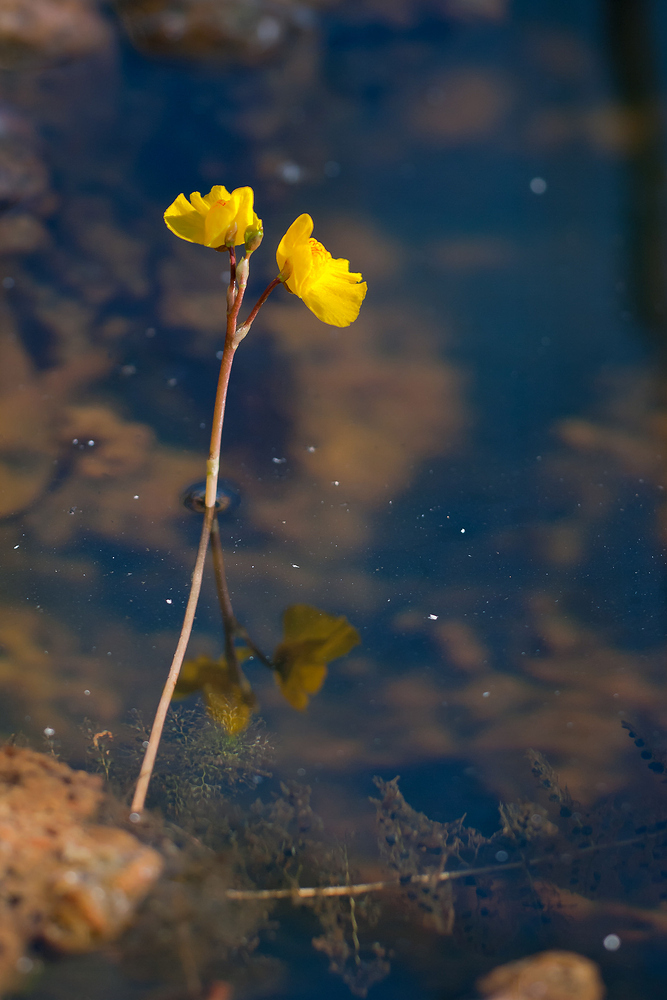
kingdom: Plantae
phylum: Tracheophyta
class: Magnoliopsida
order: Lamiales
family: Lentibulariaceae
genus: Utricularia
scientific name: Utricularia australis
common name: Bladderwort
